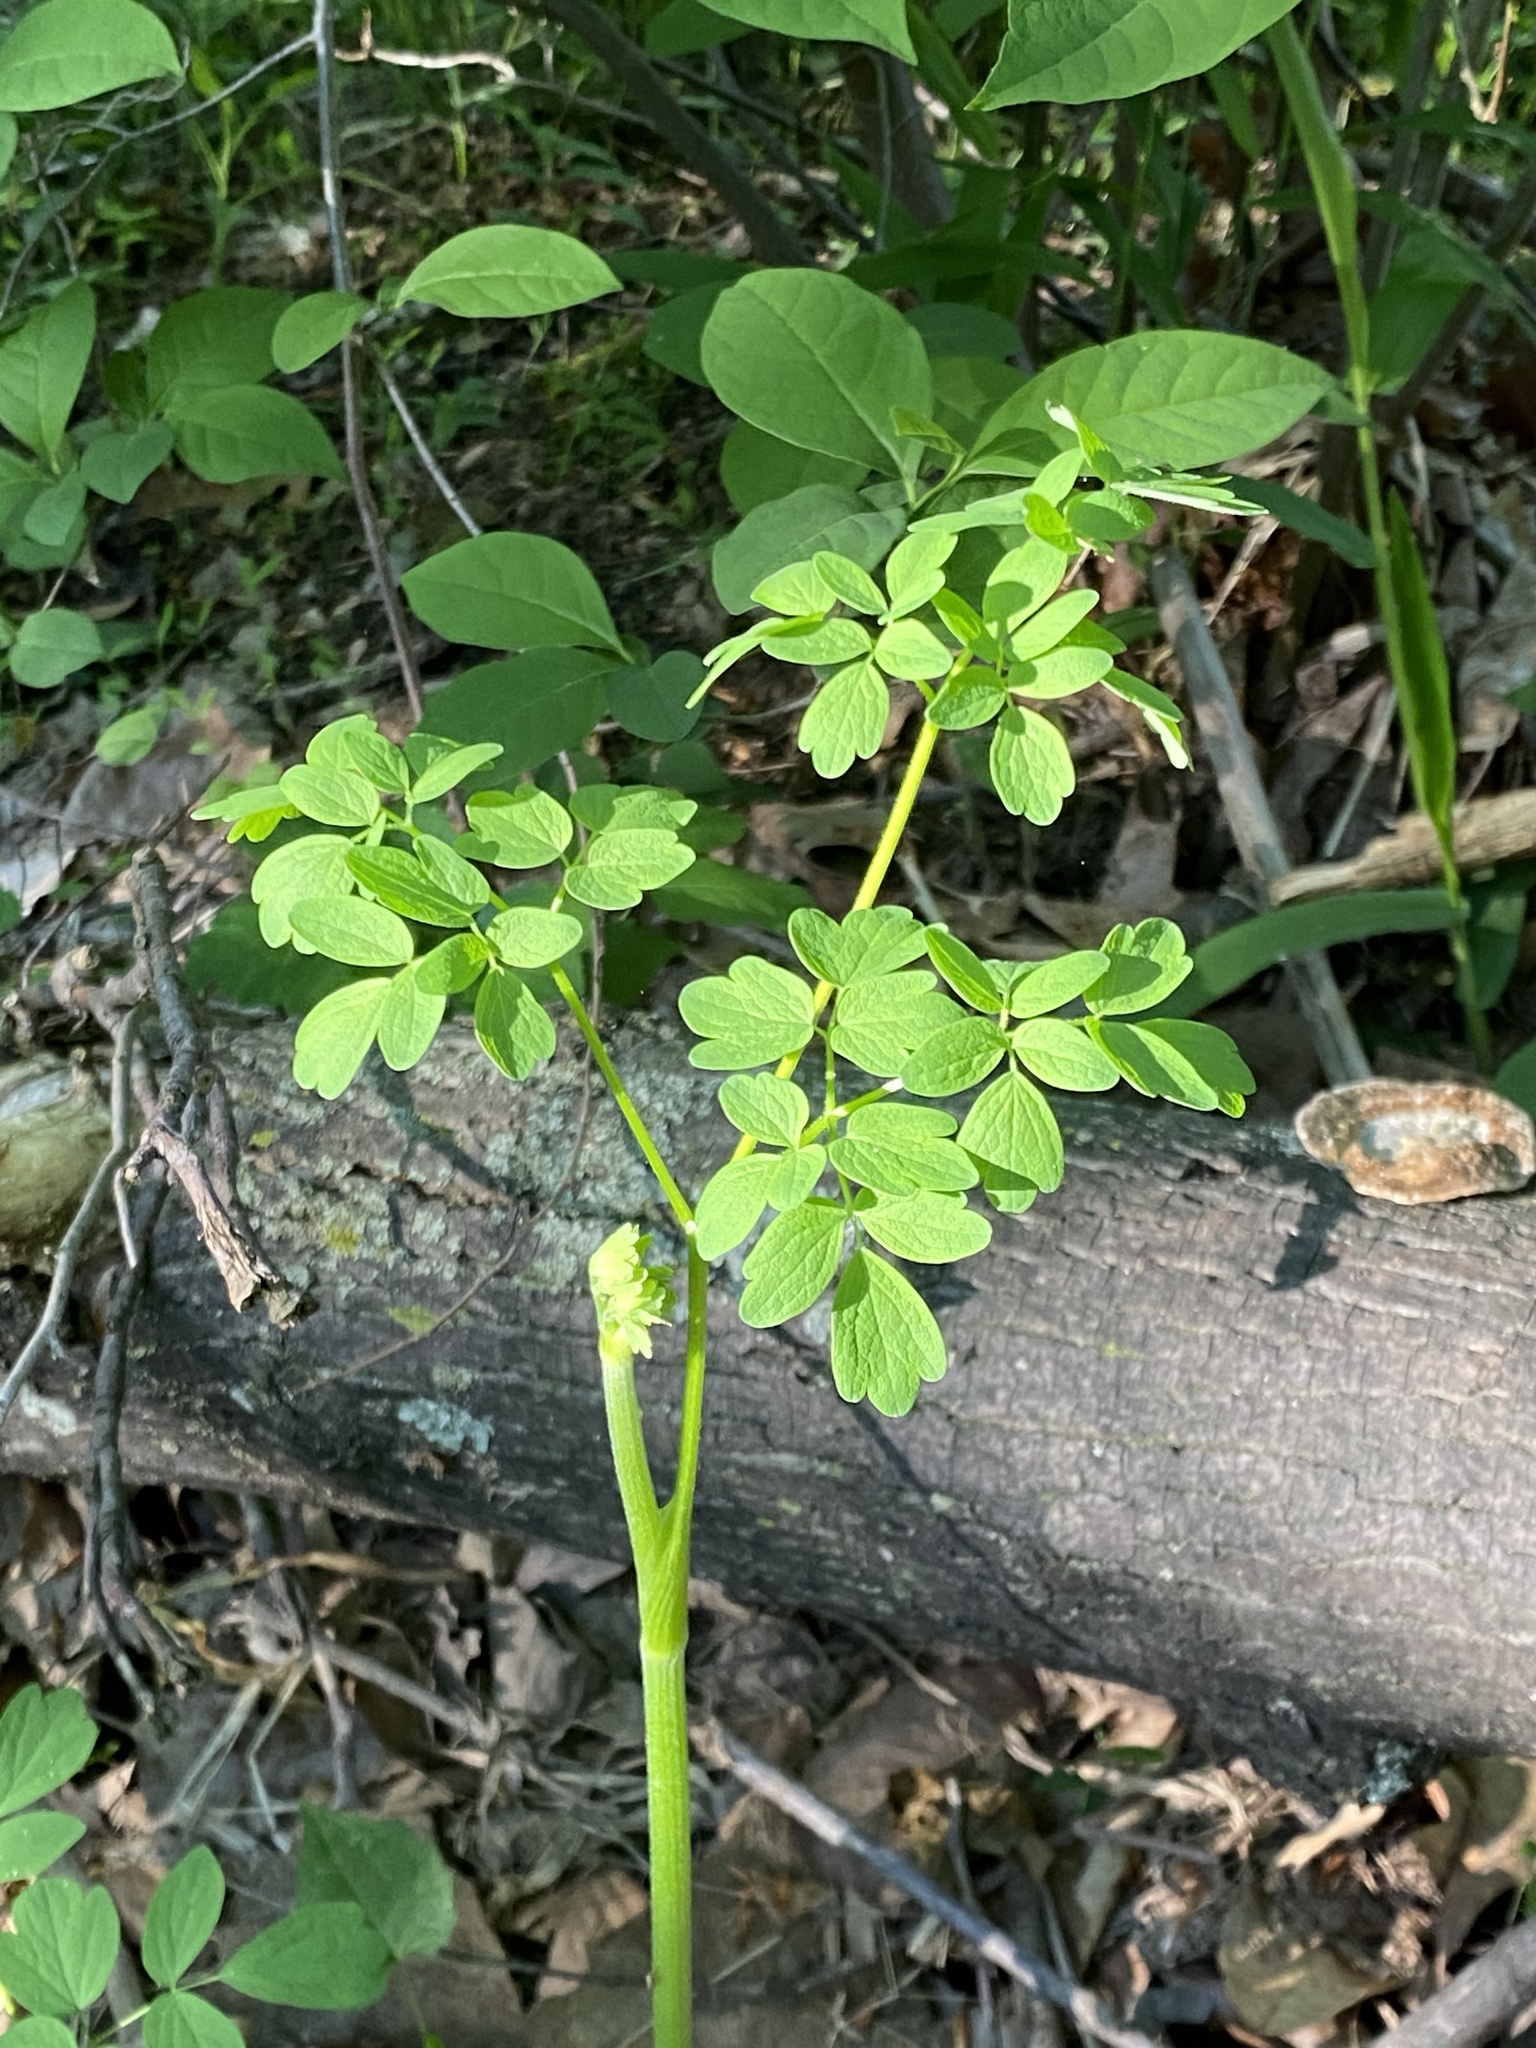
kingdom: Plantae
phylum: Tracheophyta
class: Magnoliopsida
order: Ranunculales
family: Berberidaceae
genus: Caulophyllum
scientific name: Caulophyllum thalictroides
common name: Blue cohosh
